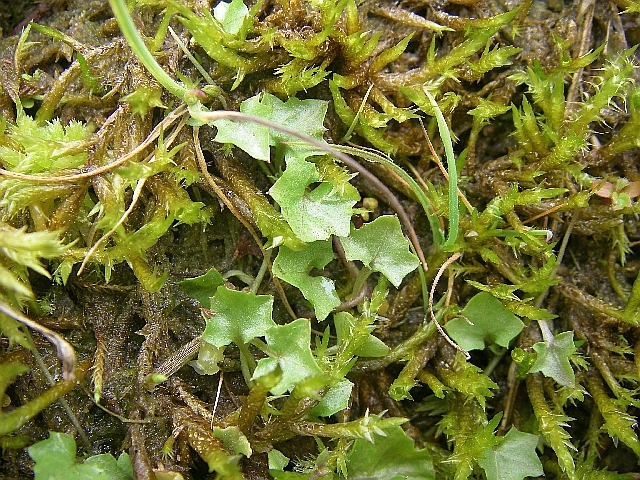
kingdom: Plantae
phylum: Tracheophyta
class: Magnoliopsida
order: Asterales
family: Campanulaceae
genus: Hesperocodon
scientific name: Hesperocodon hederaceus
